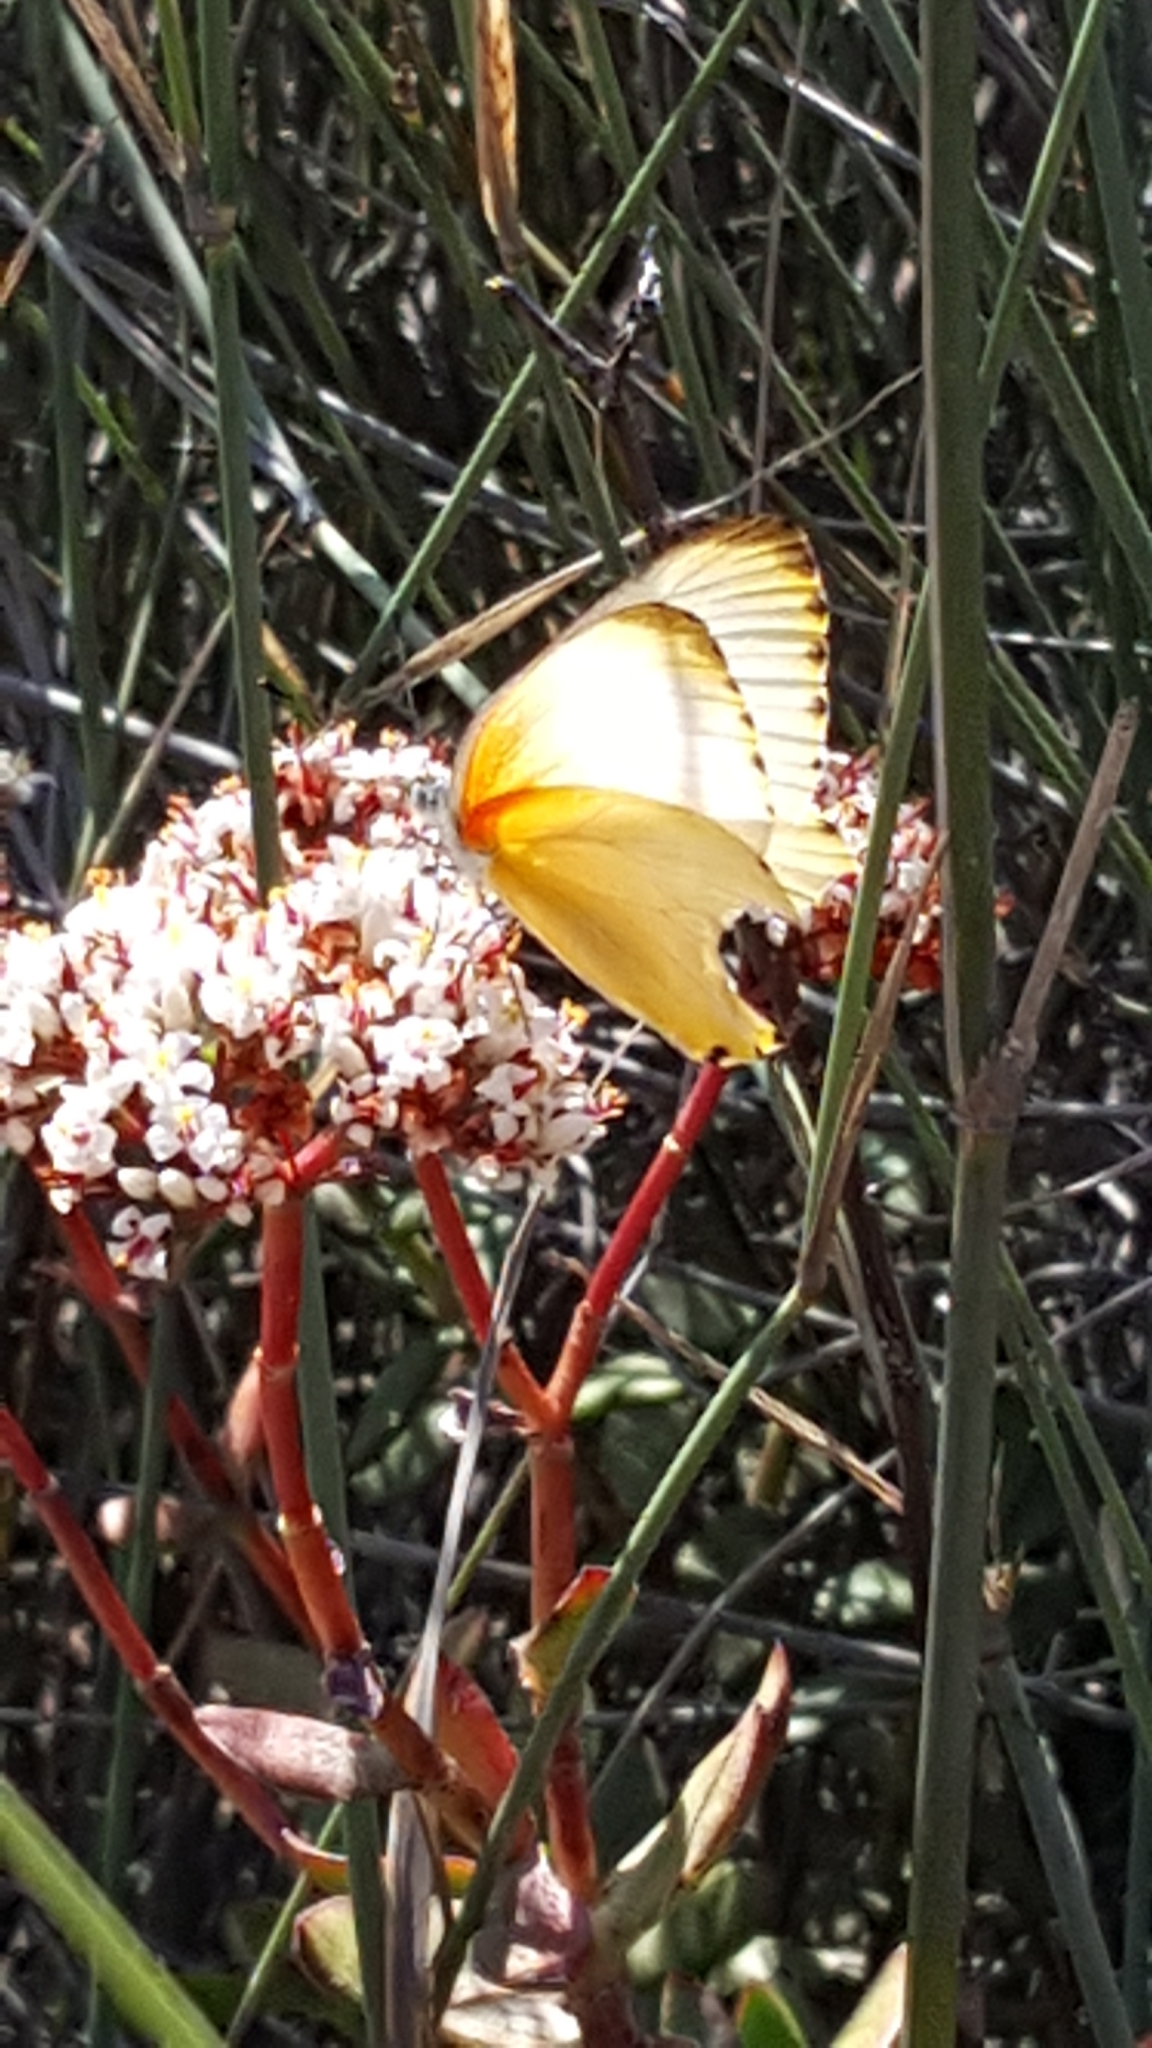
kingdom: Animalia
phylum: Arthropoda
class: Insecta
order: Lepidoptera
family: Pieridae
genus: Mylothris
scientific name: Mylothris agathina
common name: Eastern dotted border
